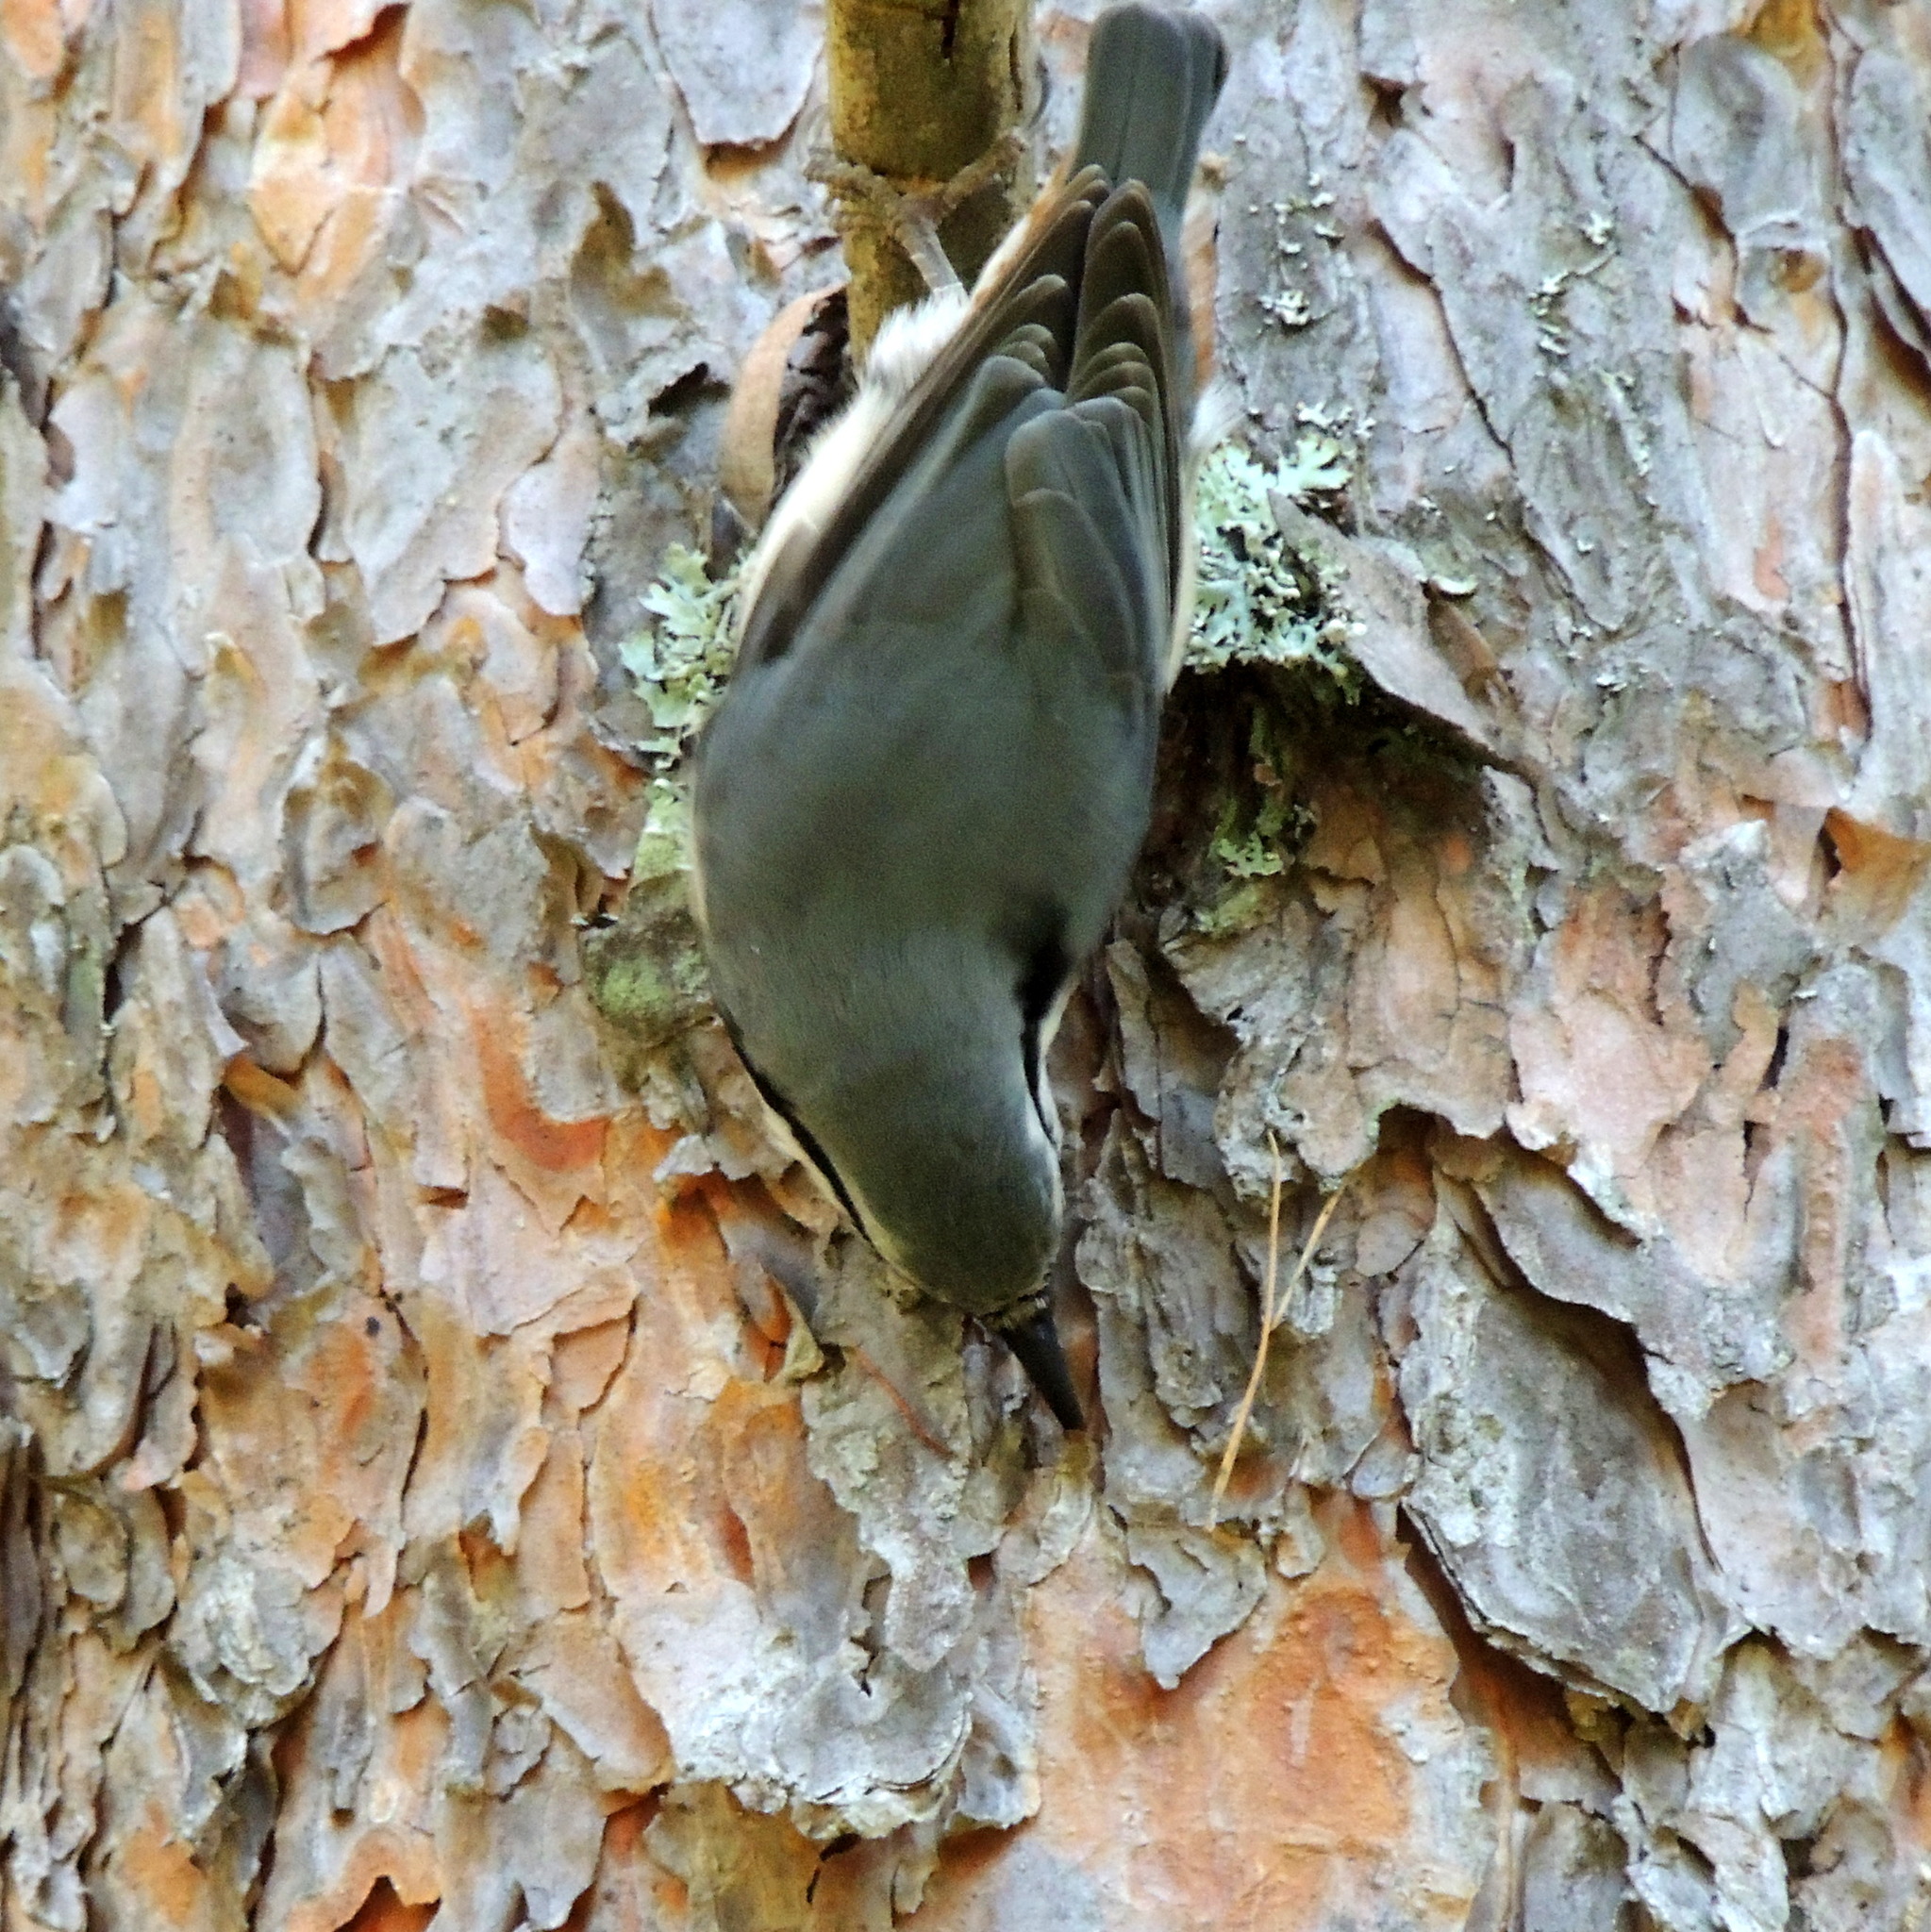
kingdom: Animalia
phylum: Chordata
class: Aves
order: Passeriformes
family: Sittidae
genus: Sitta
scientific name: Sitta europaea
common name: Eurasian nuthatch
